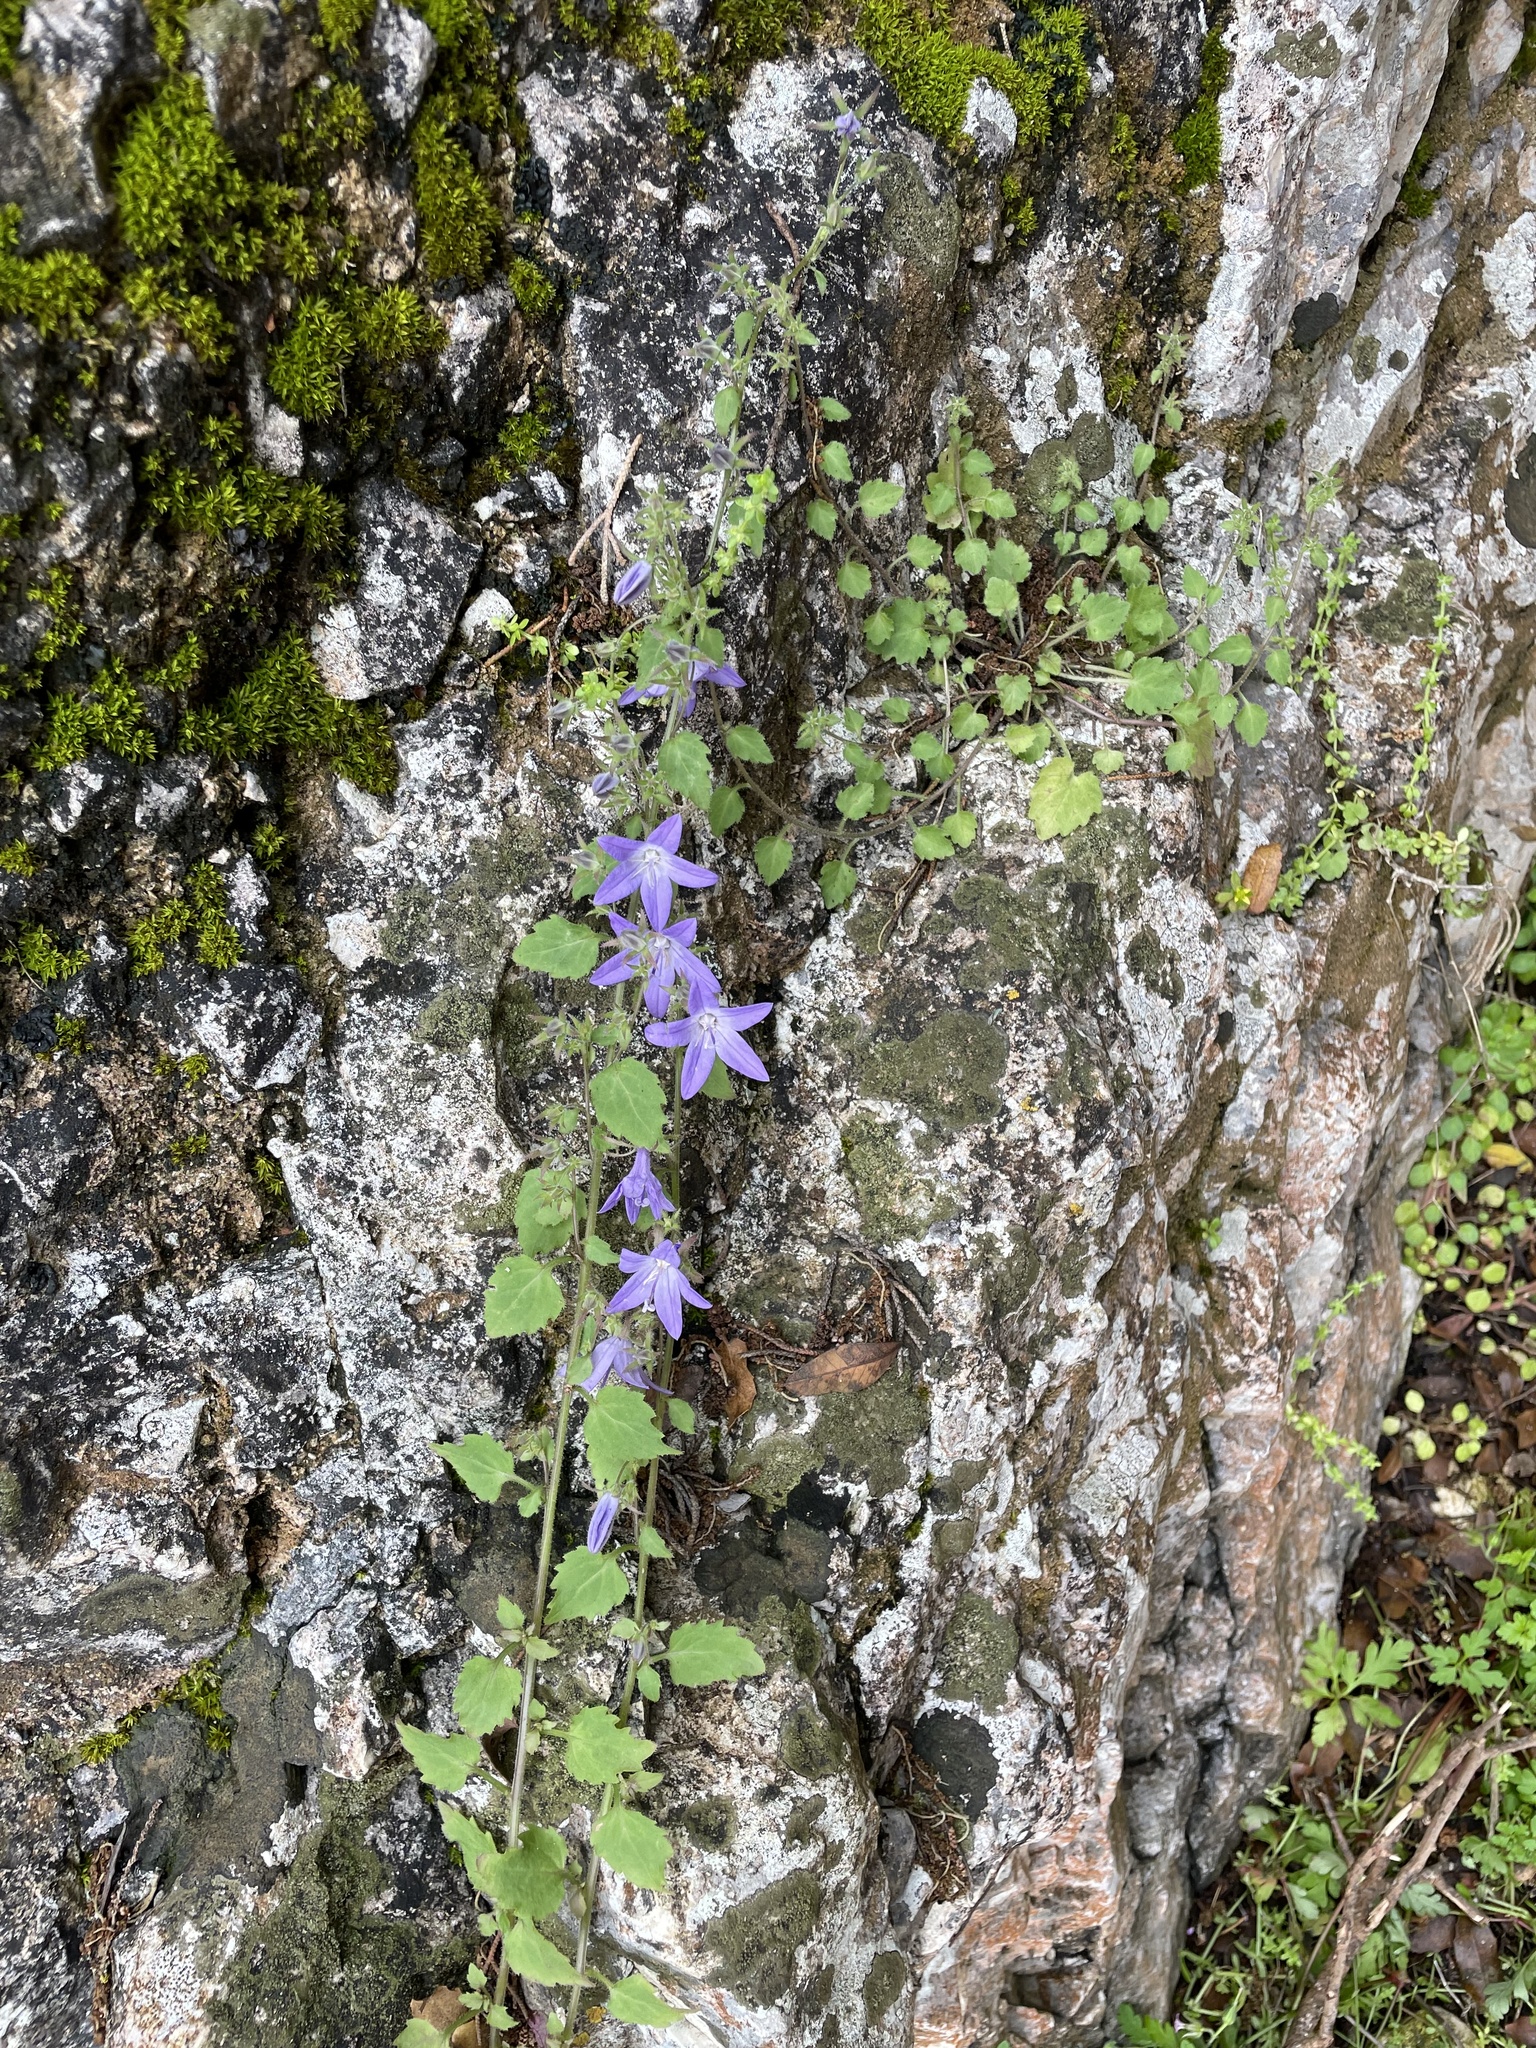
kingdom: Plantae
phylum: Tracheophyta
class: Magnoliopsida
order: Asterales
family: Campanulaceae
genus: Campanula
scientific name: Campanula garganica
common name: Adriatic bellflower
